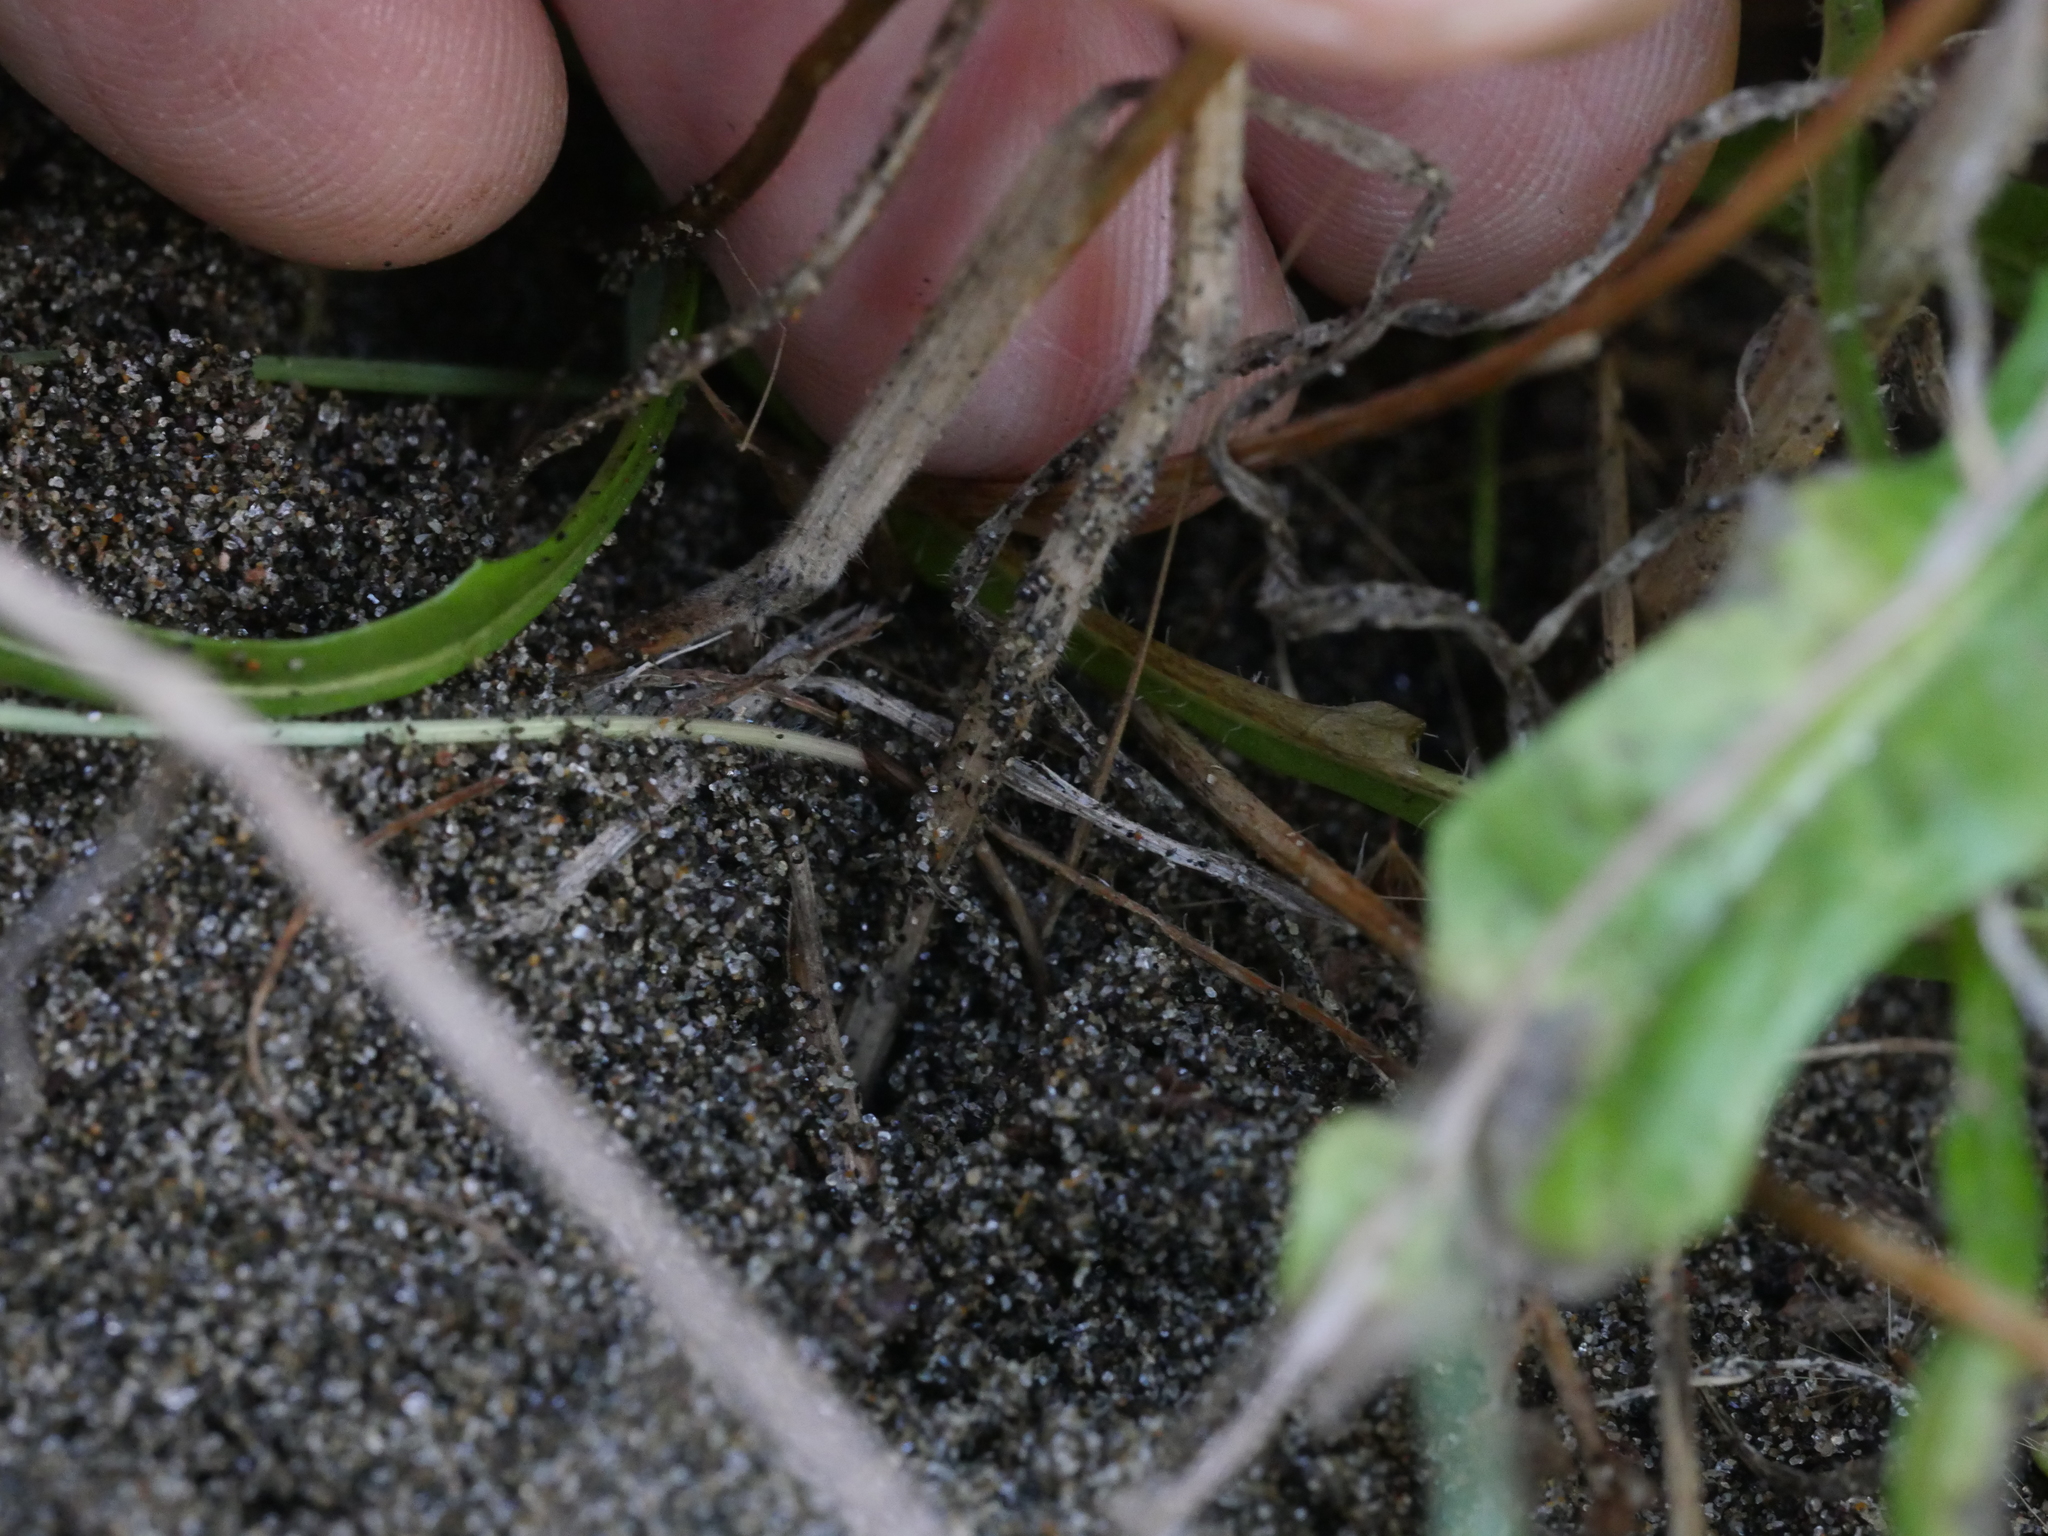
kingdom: Plantae
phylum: Tracheophyta
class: Liliopsida
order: Poales
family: Poaceae
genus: Lagurus
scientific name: Lagurus ovatus
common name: Hare's-tail
